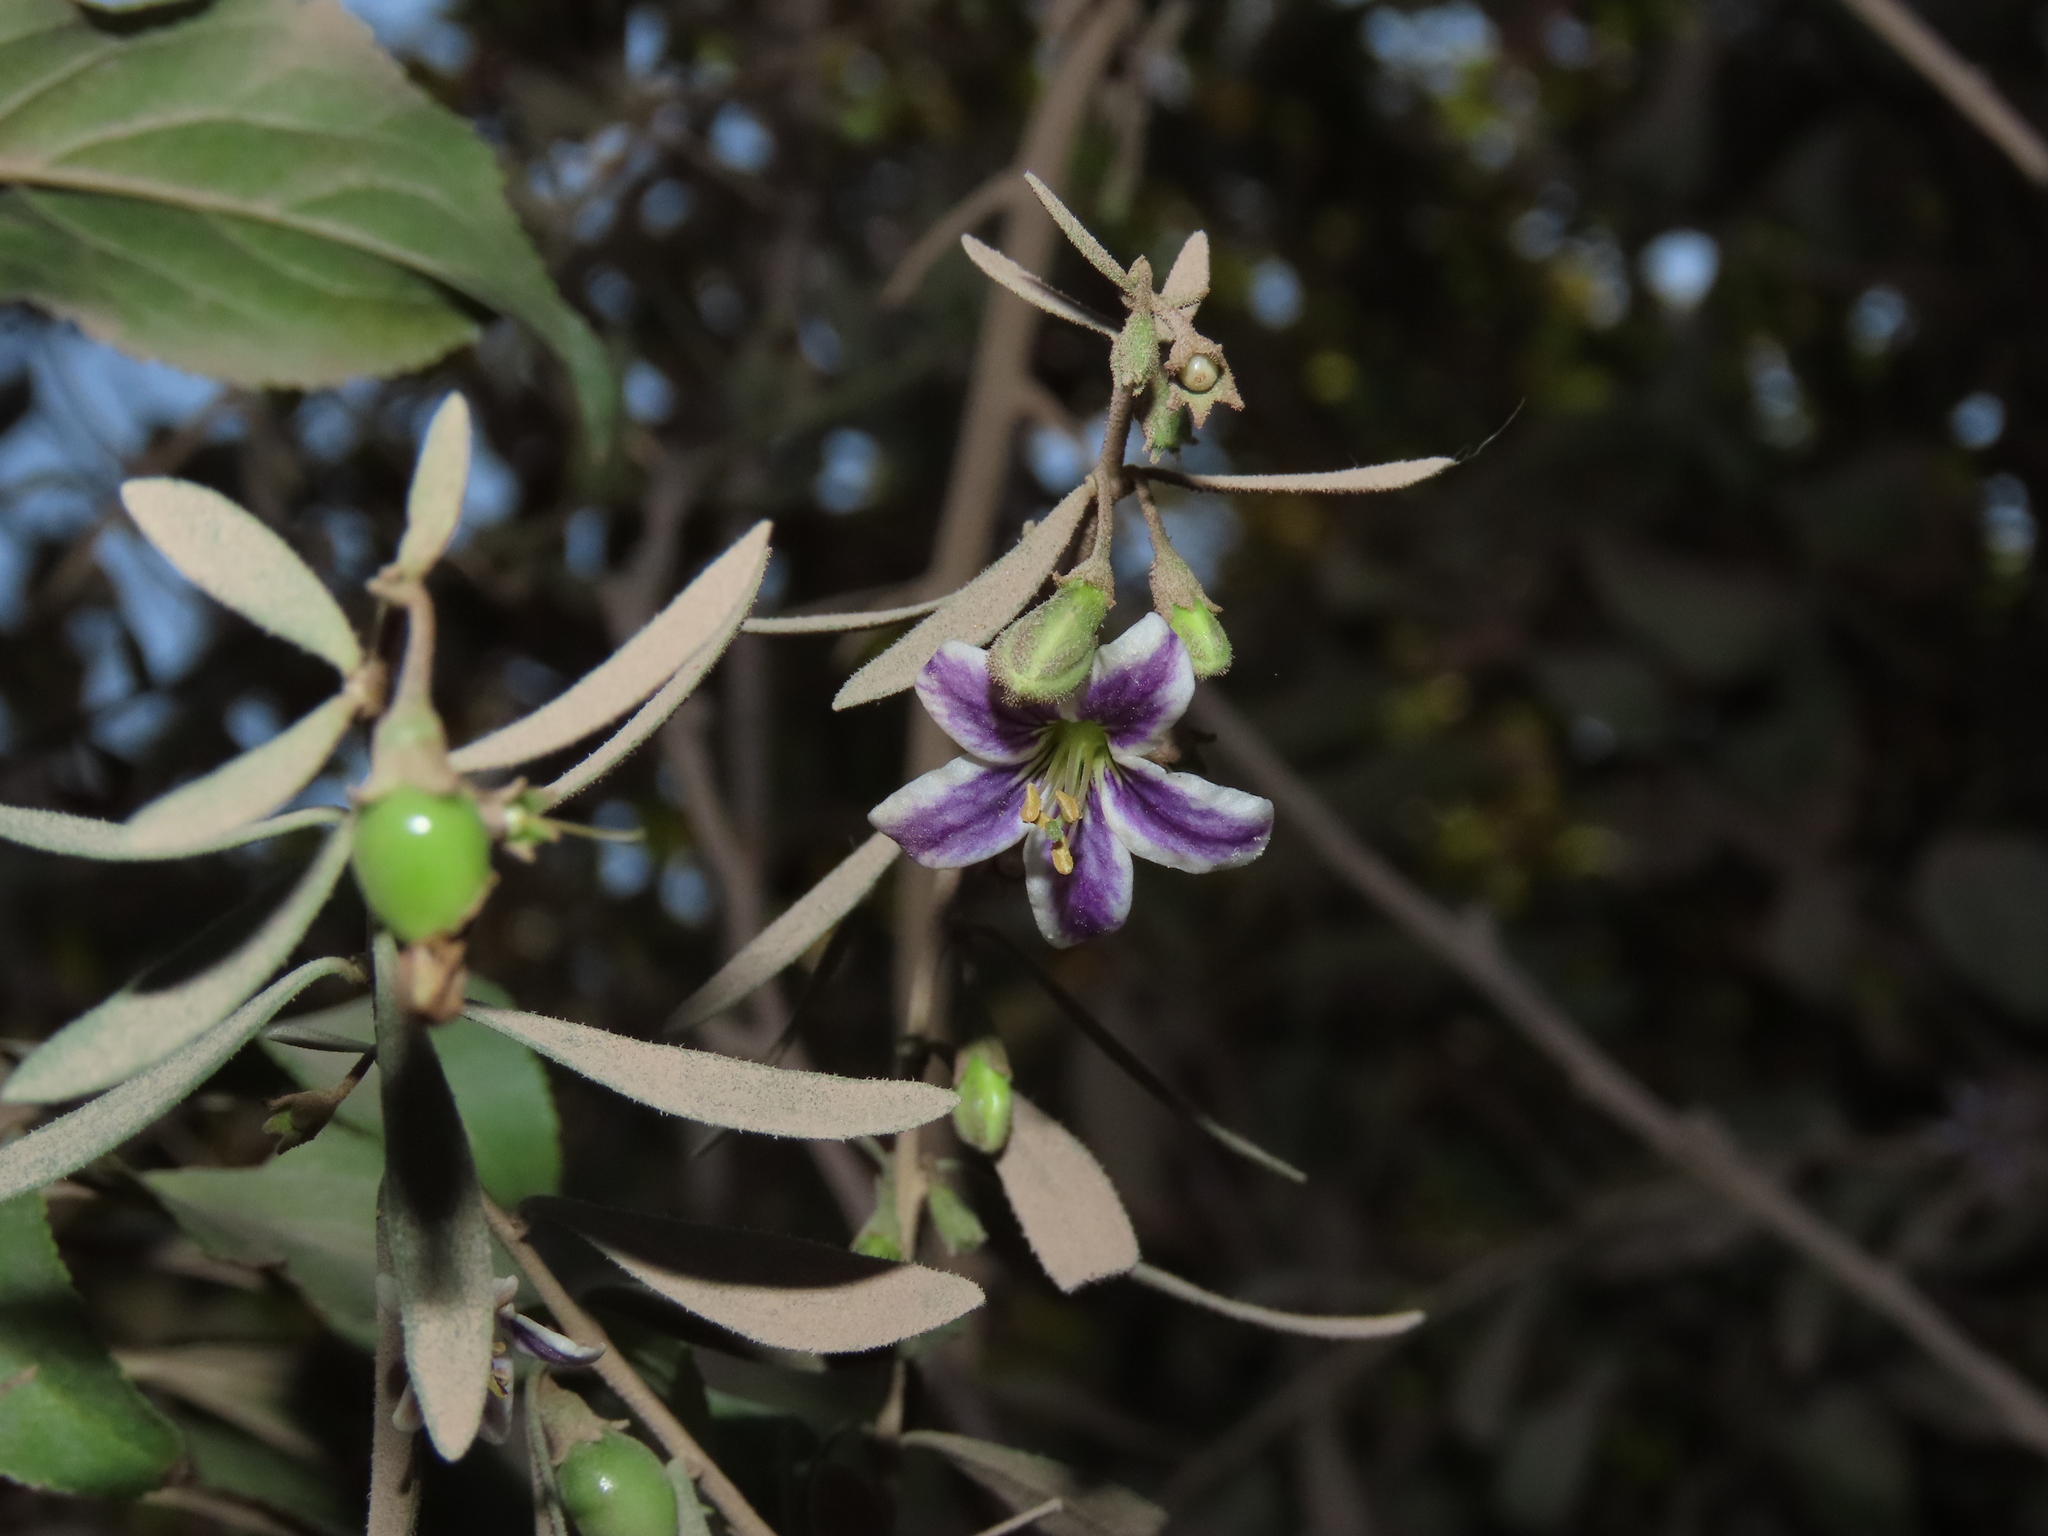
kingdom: Plantae
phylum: Tracheophyta
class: Magnoliopsida
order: Solanales
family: Solanaceae
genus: Lycium
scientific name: Lycium chilense
